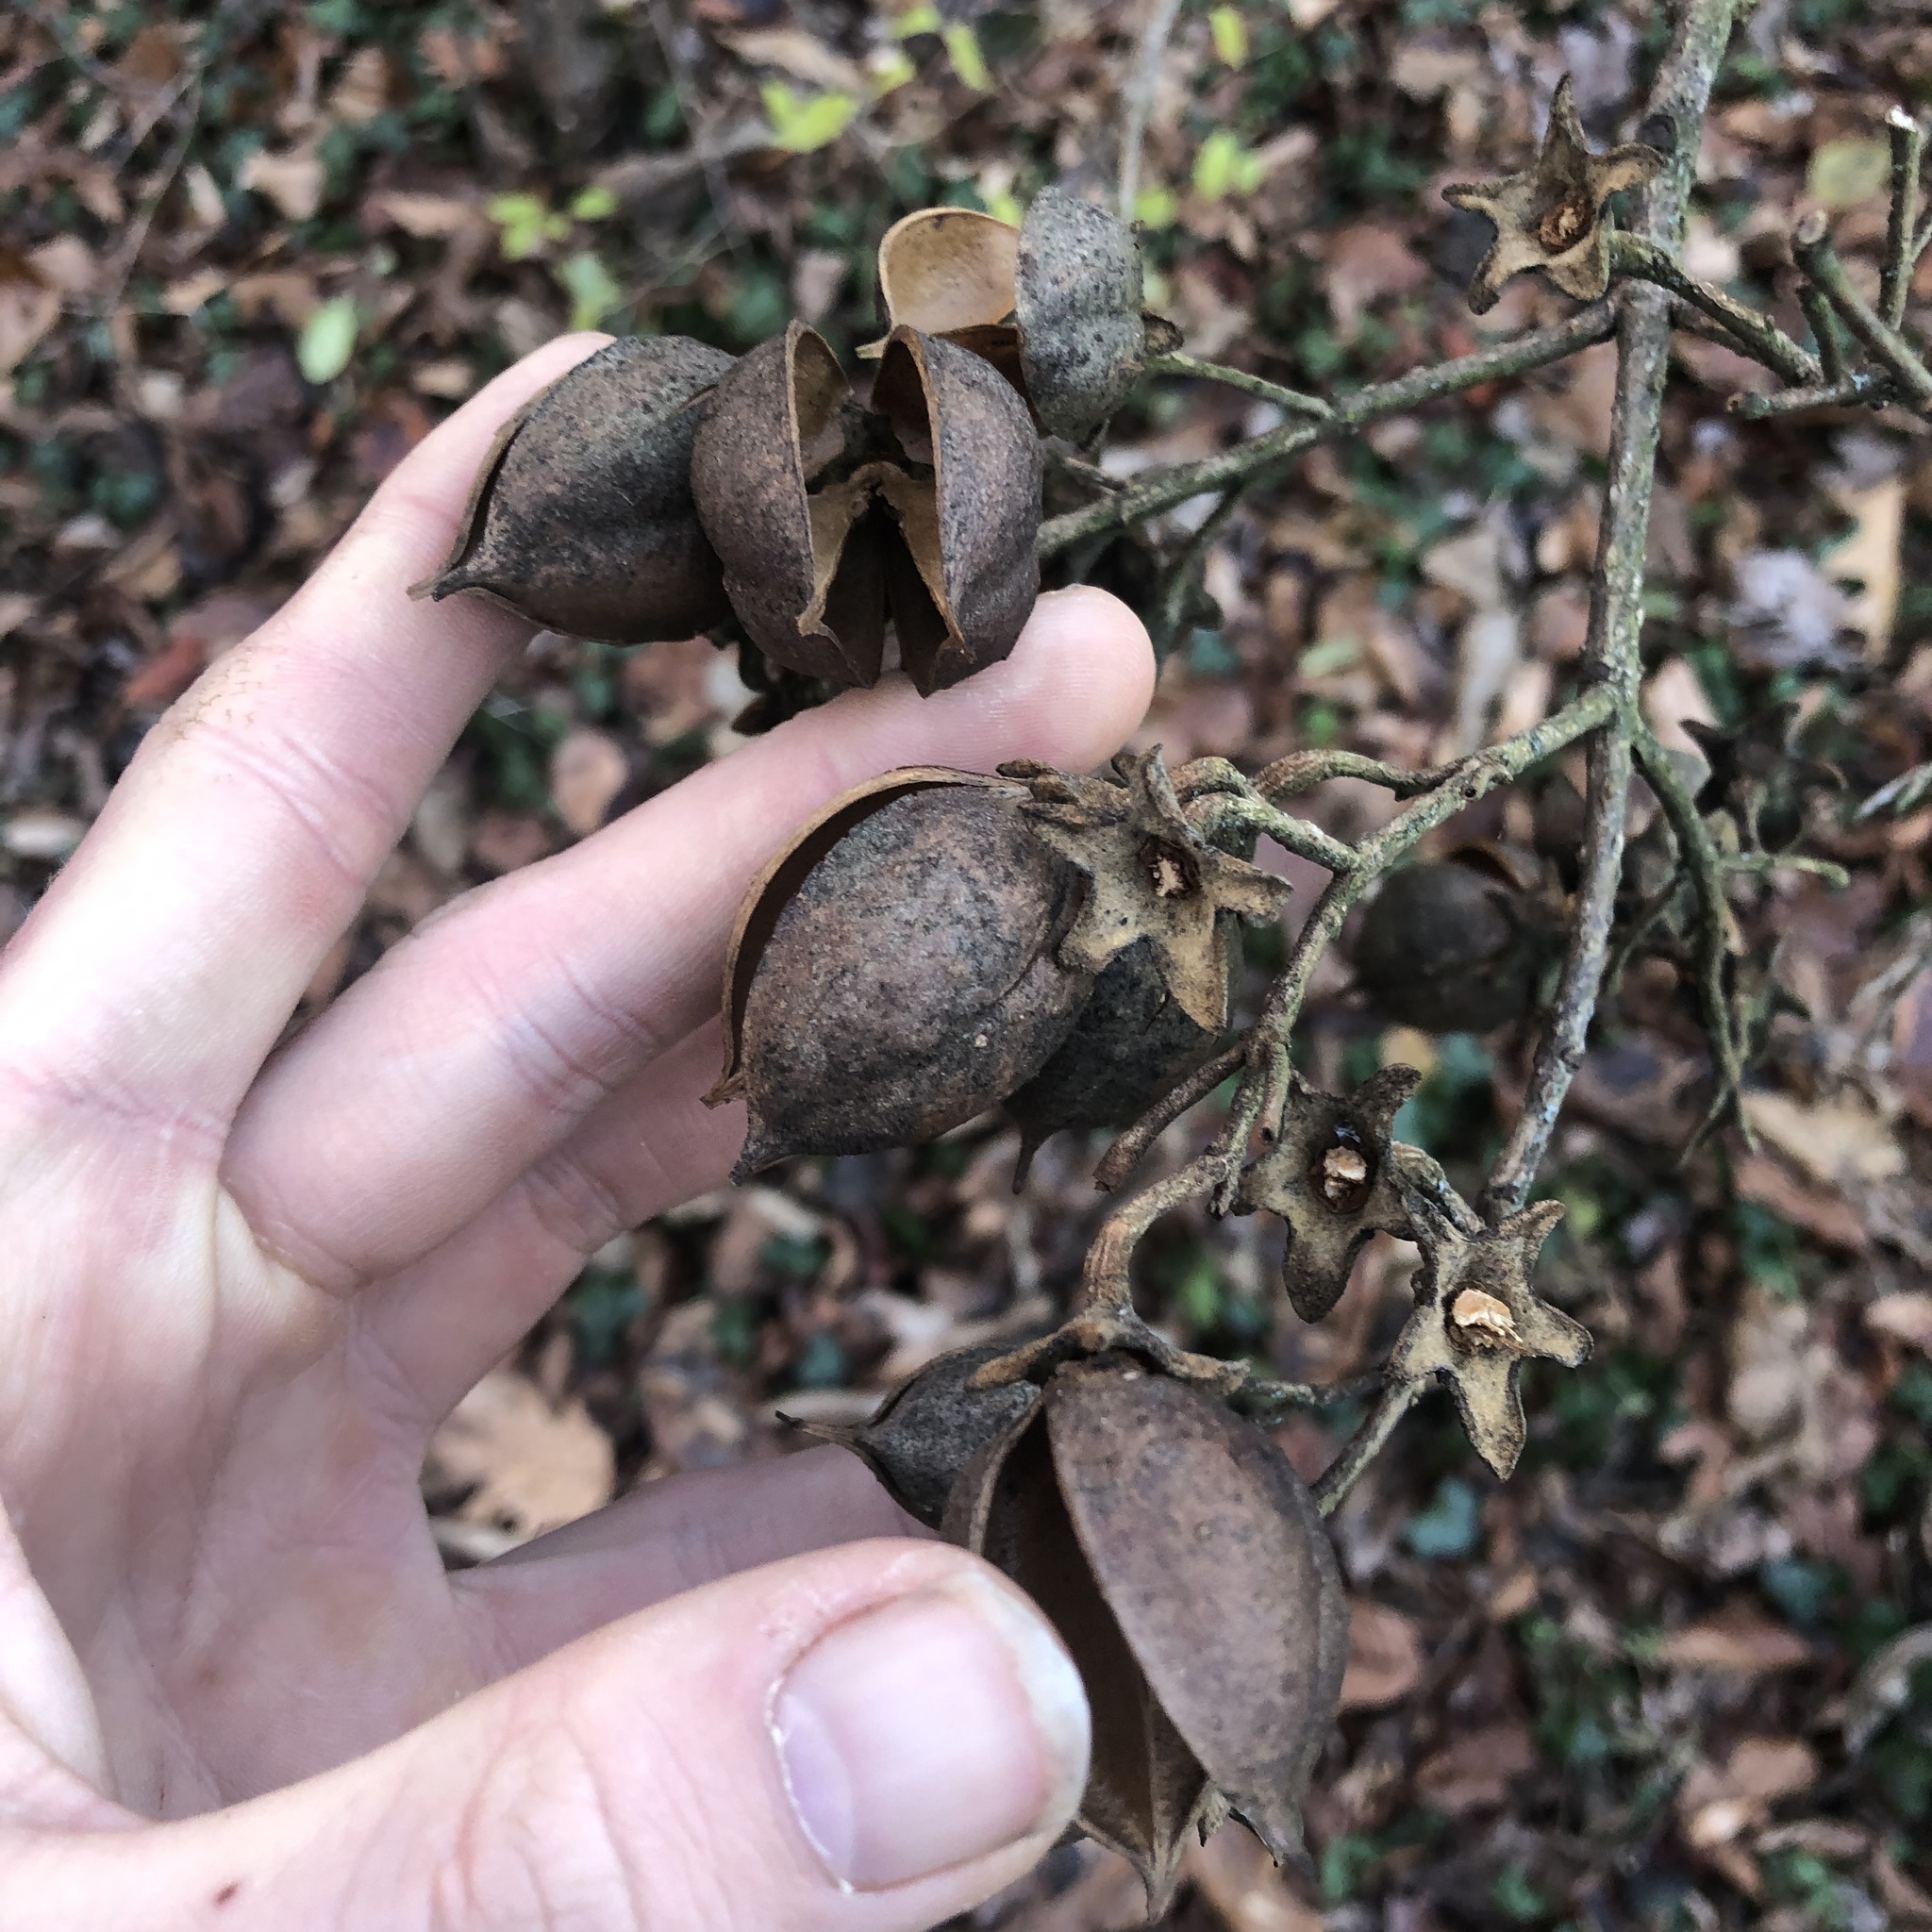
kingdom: Plantae
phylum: Tracheophyta
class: Magnoliopsida
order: Lamiales
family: Paulowniaceae
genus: Paulownia
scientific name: Paulownia tomentosa
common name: Foxglove-tree
